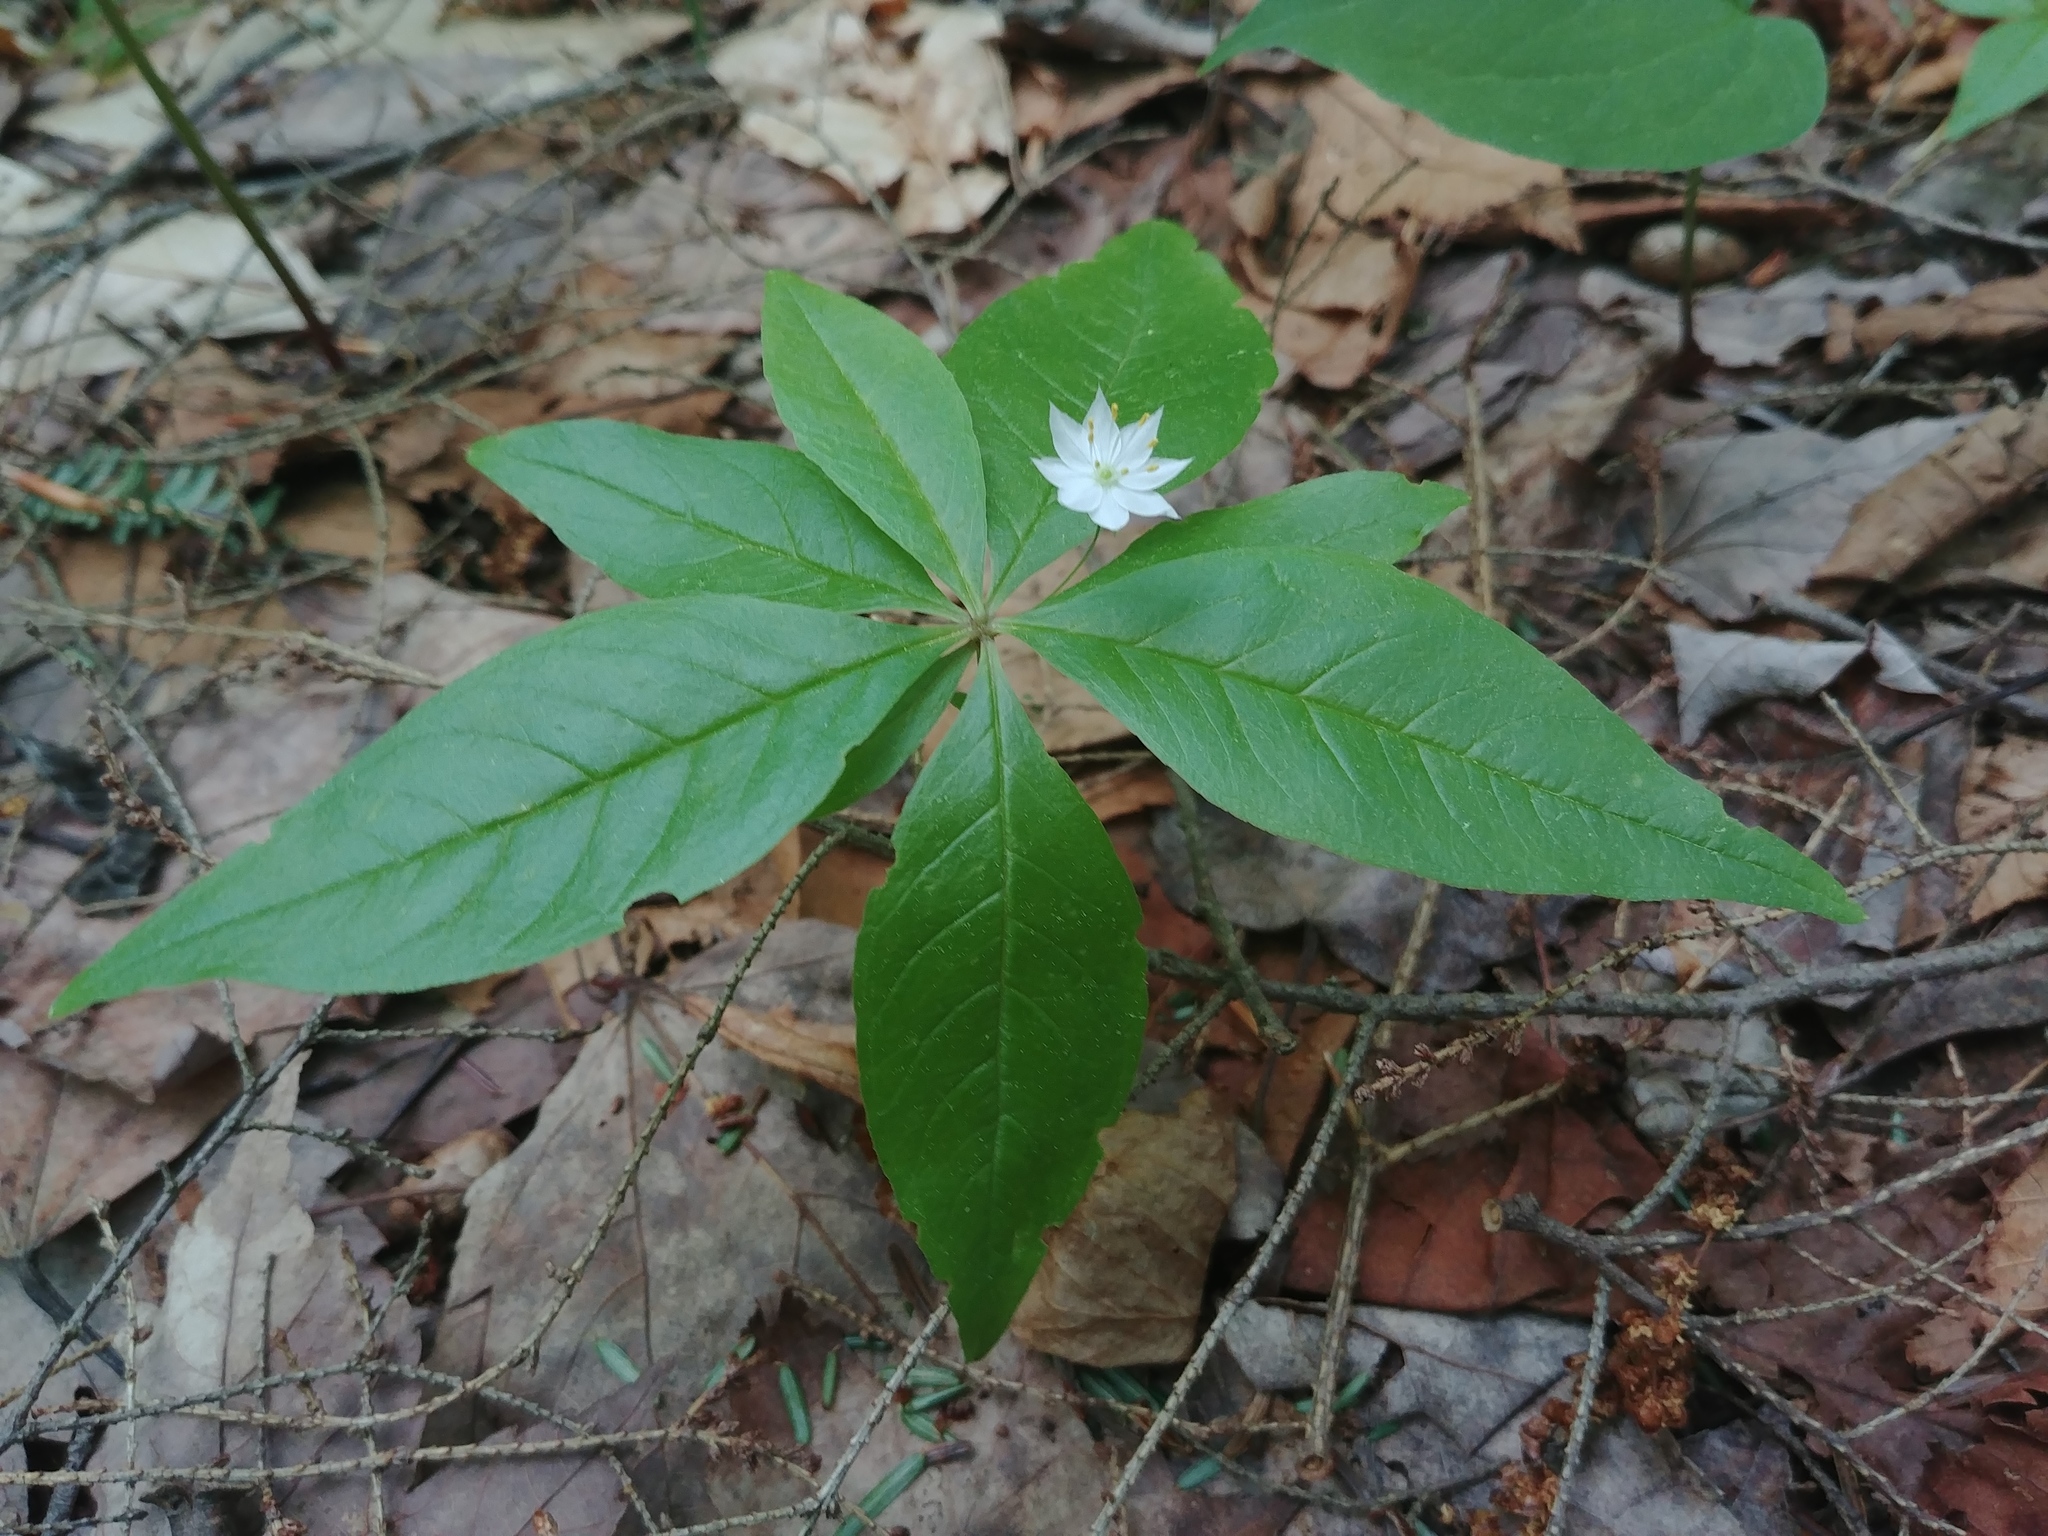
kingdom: Plantae
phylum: Tracheophyta
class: Magnoliopsida
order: Ericales
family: Primulaceae
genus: Lysimachia
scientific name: Lysimachia borealis
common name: American starflower
